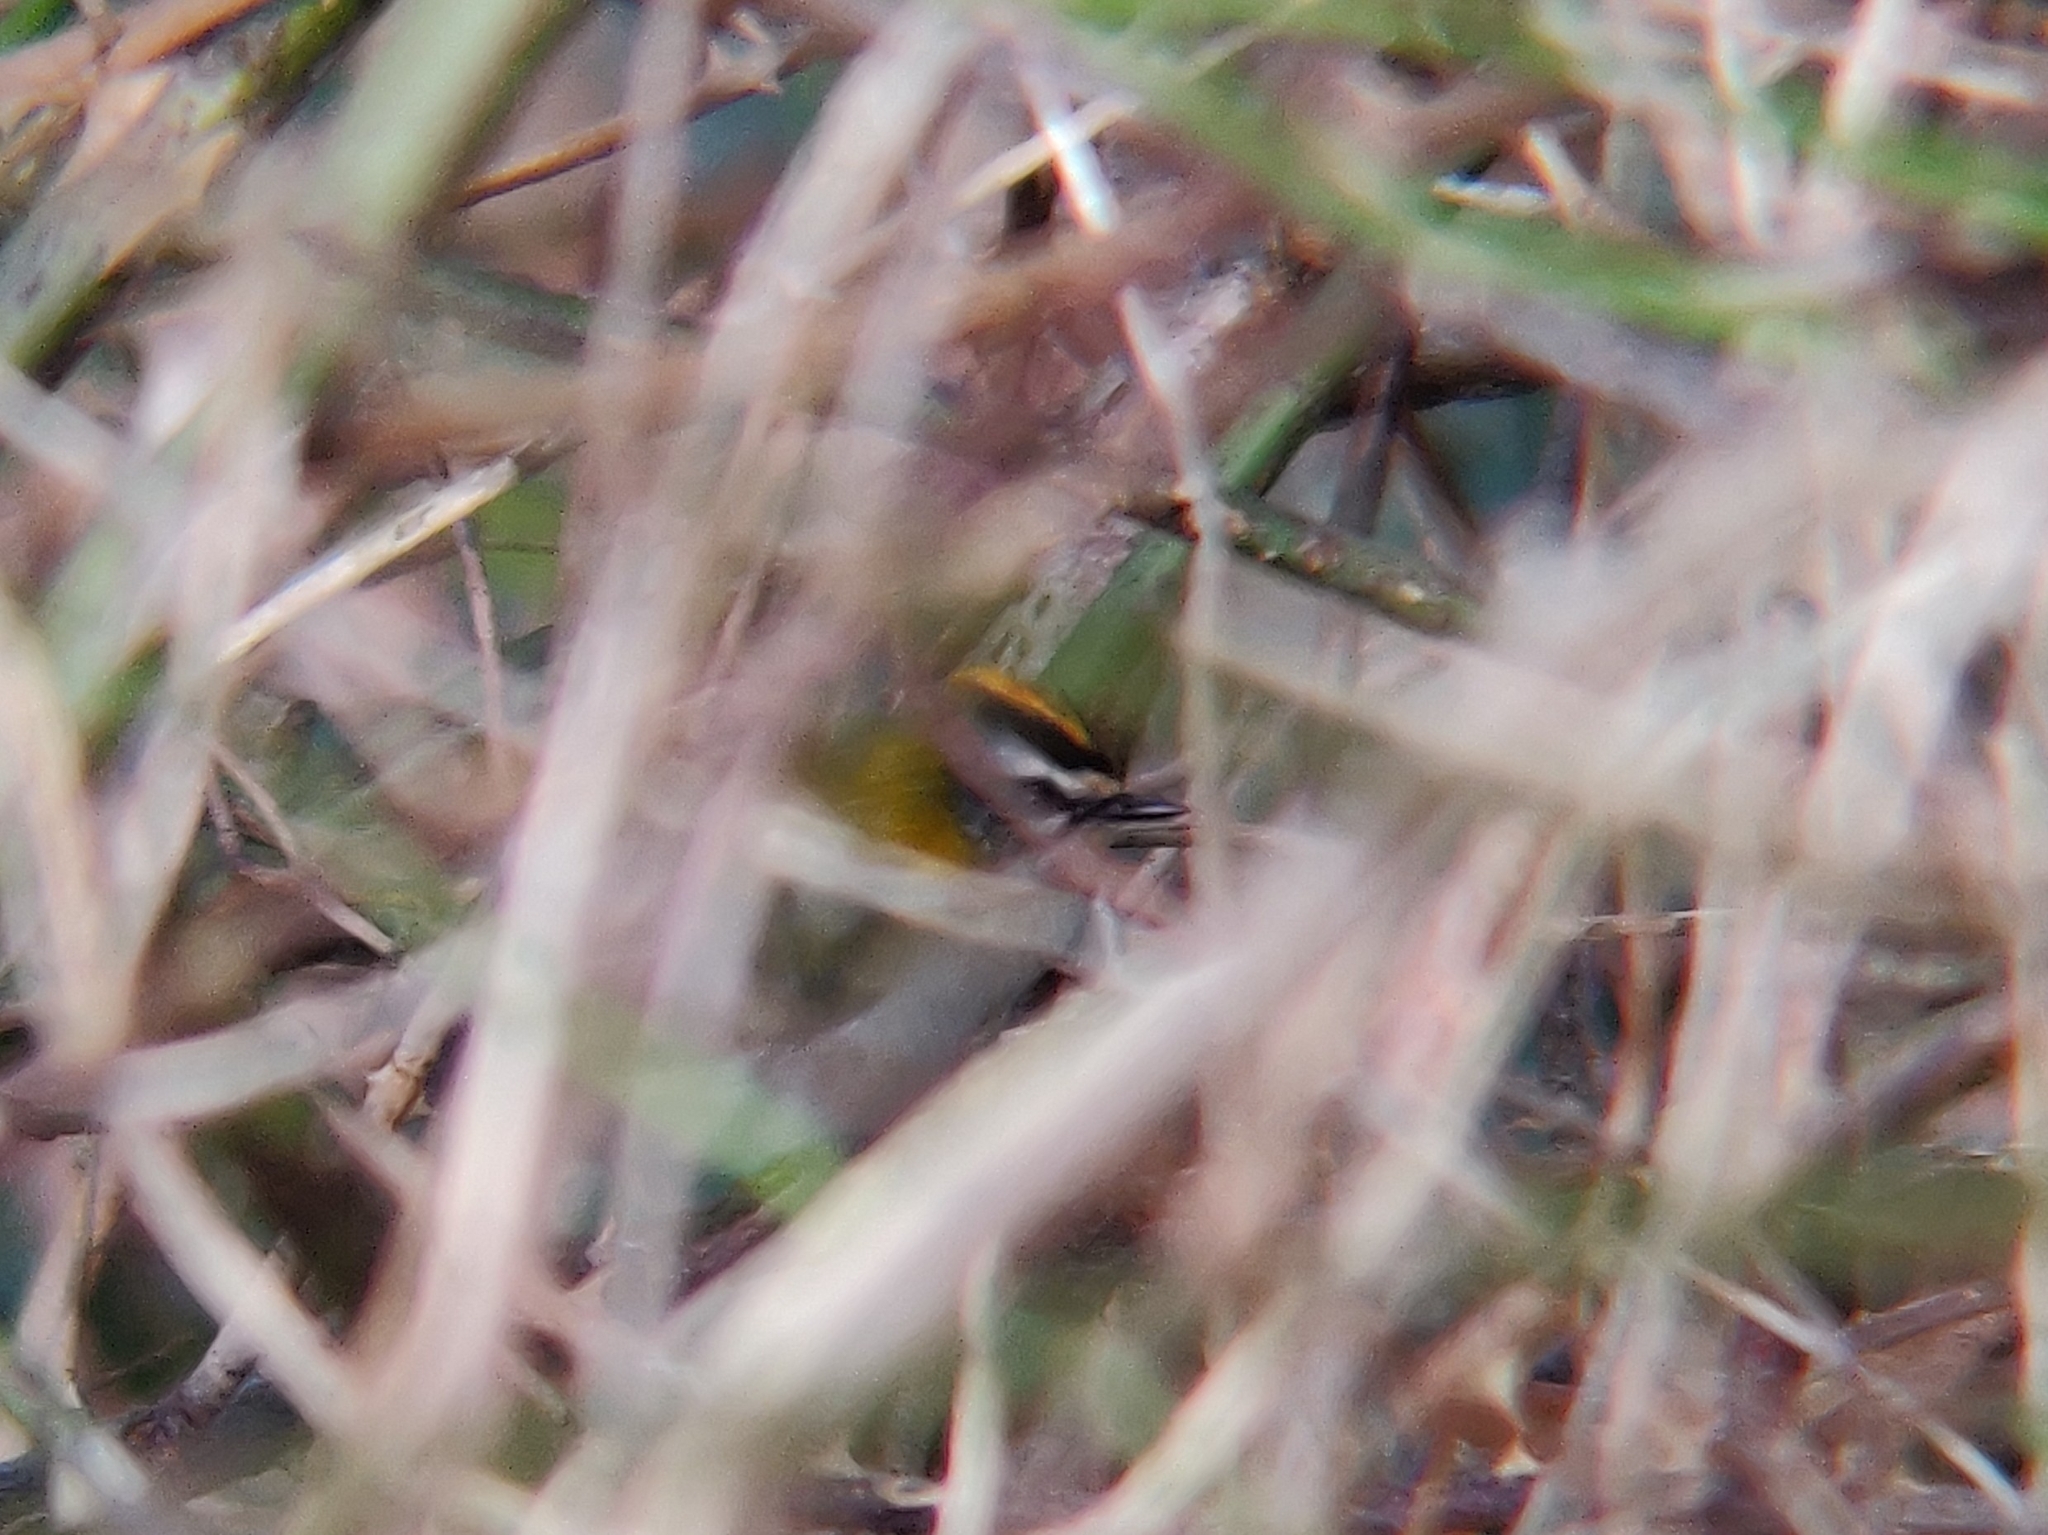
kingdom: Animalia
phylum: Chordata
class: Aves
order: Passeriformes
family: Regulidae
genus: Regulus
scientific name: Regulus ignicapilla
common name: Firecrest
